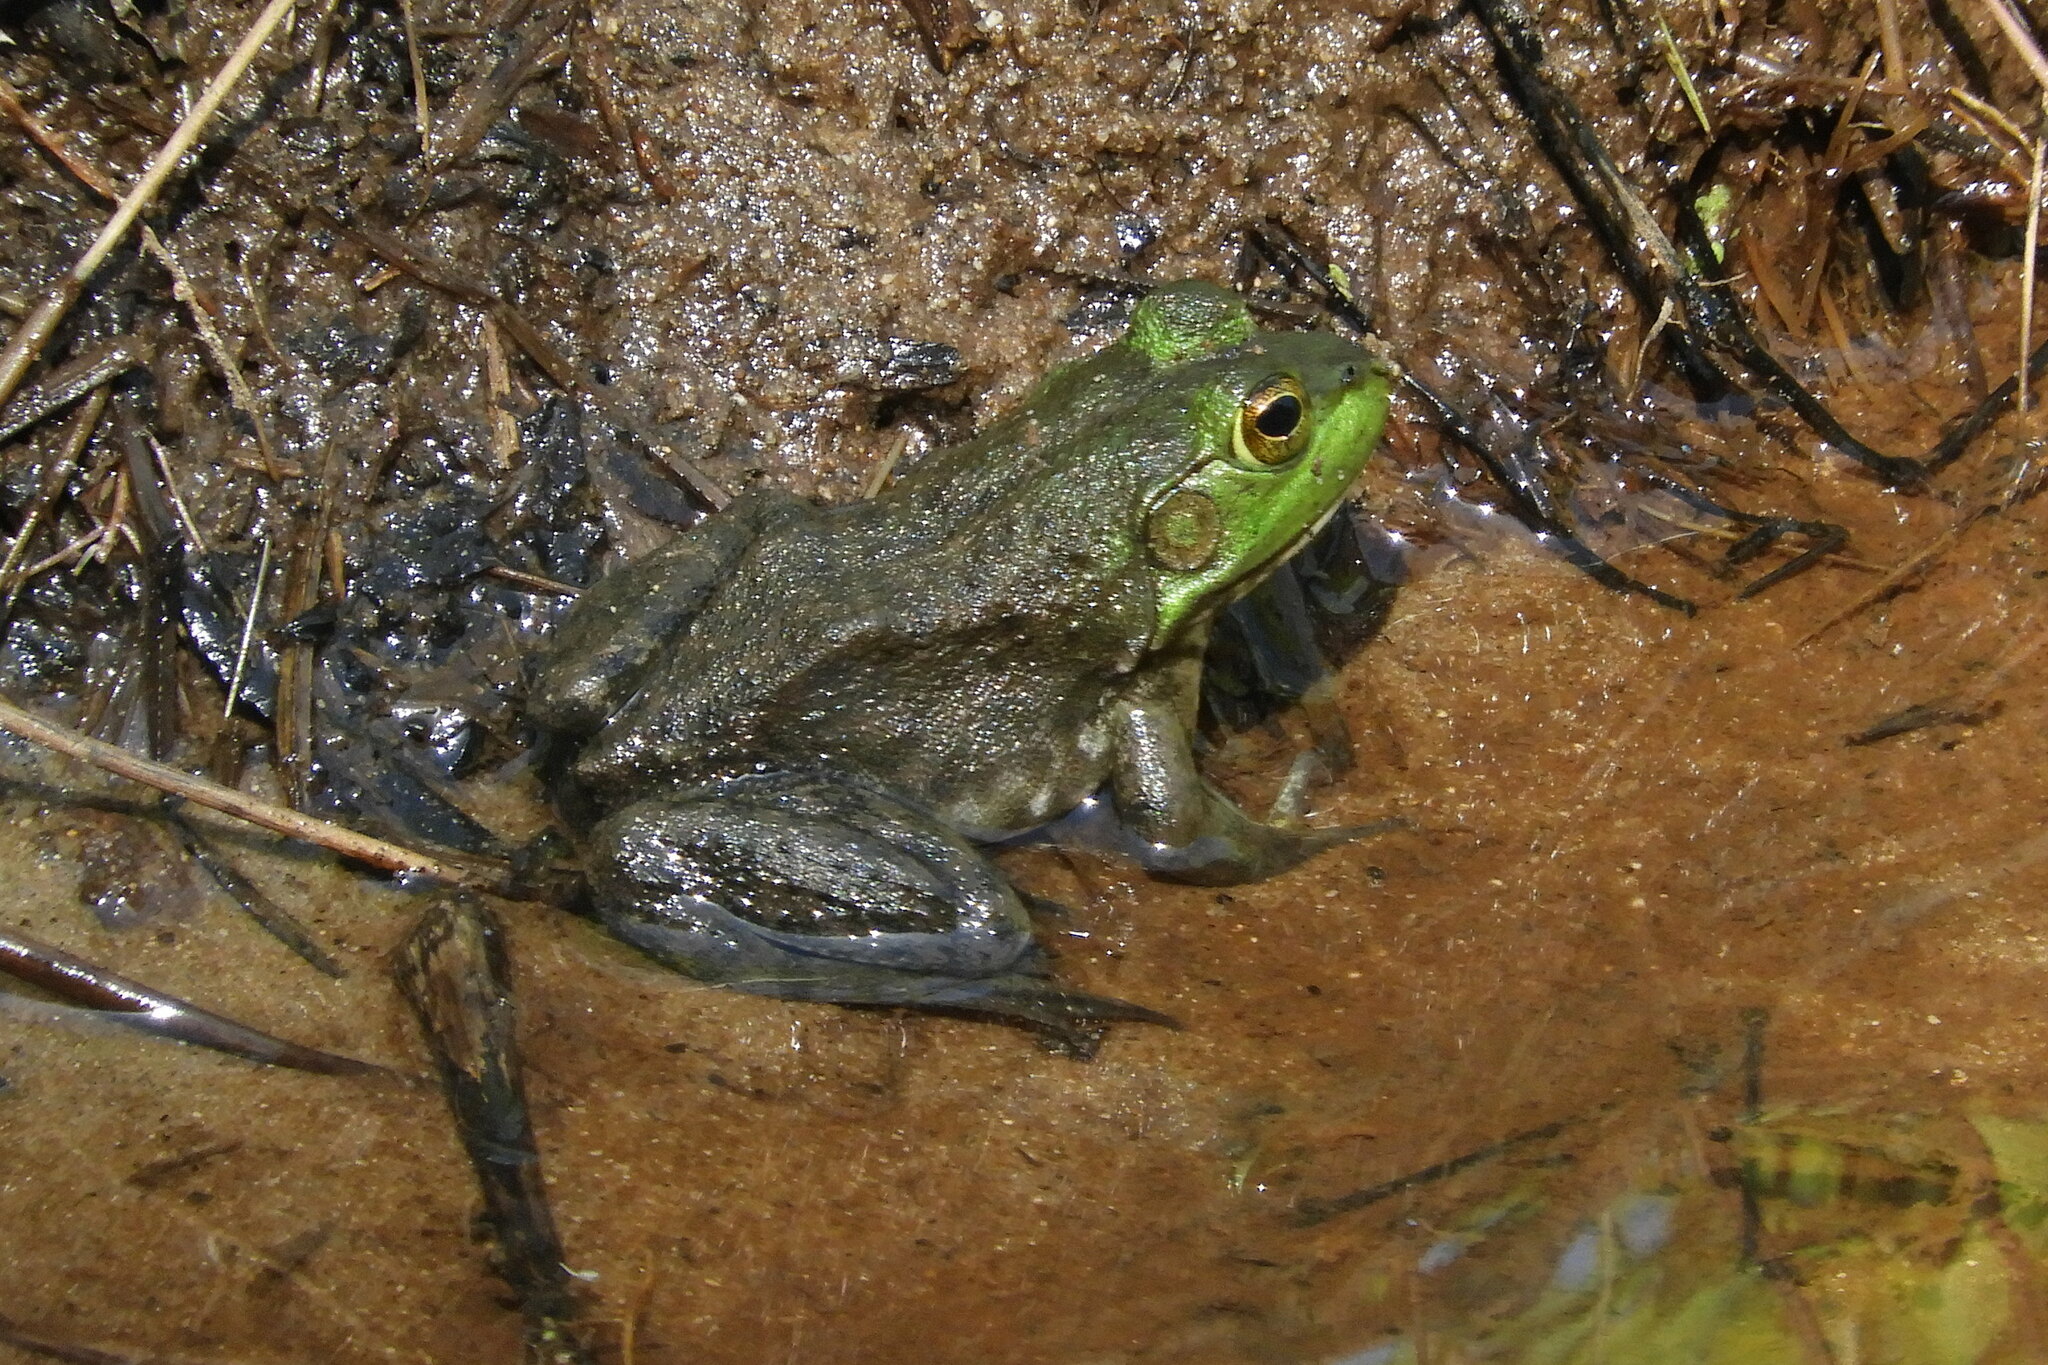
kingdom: Animalia
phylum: Chordata
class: Amphibia
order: Anura
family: Ranidae
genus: Lithobates
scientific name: Lithobates catesbeianus
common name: American bullfrog
